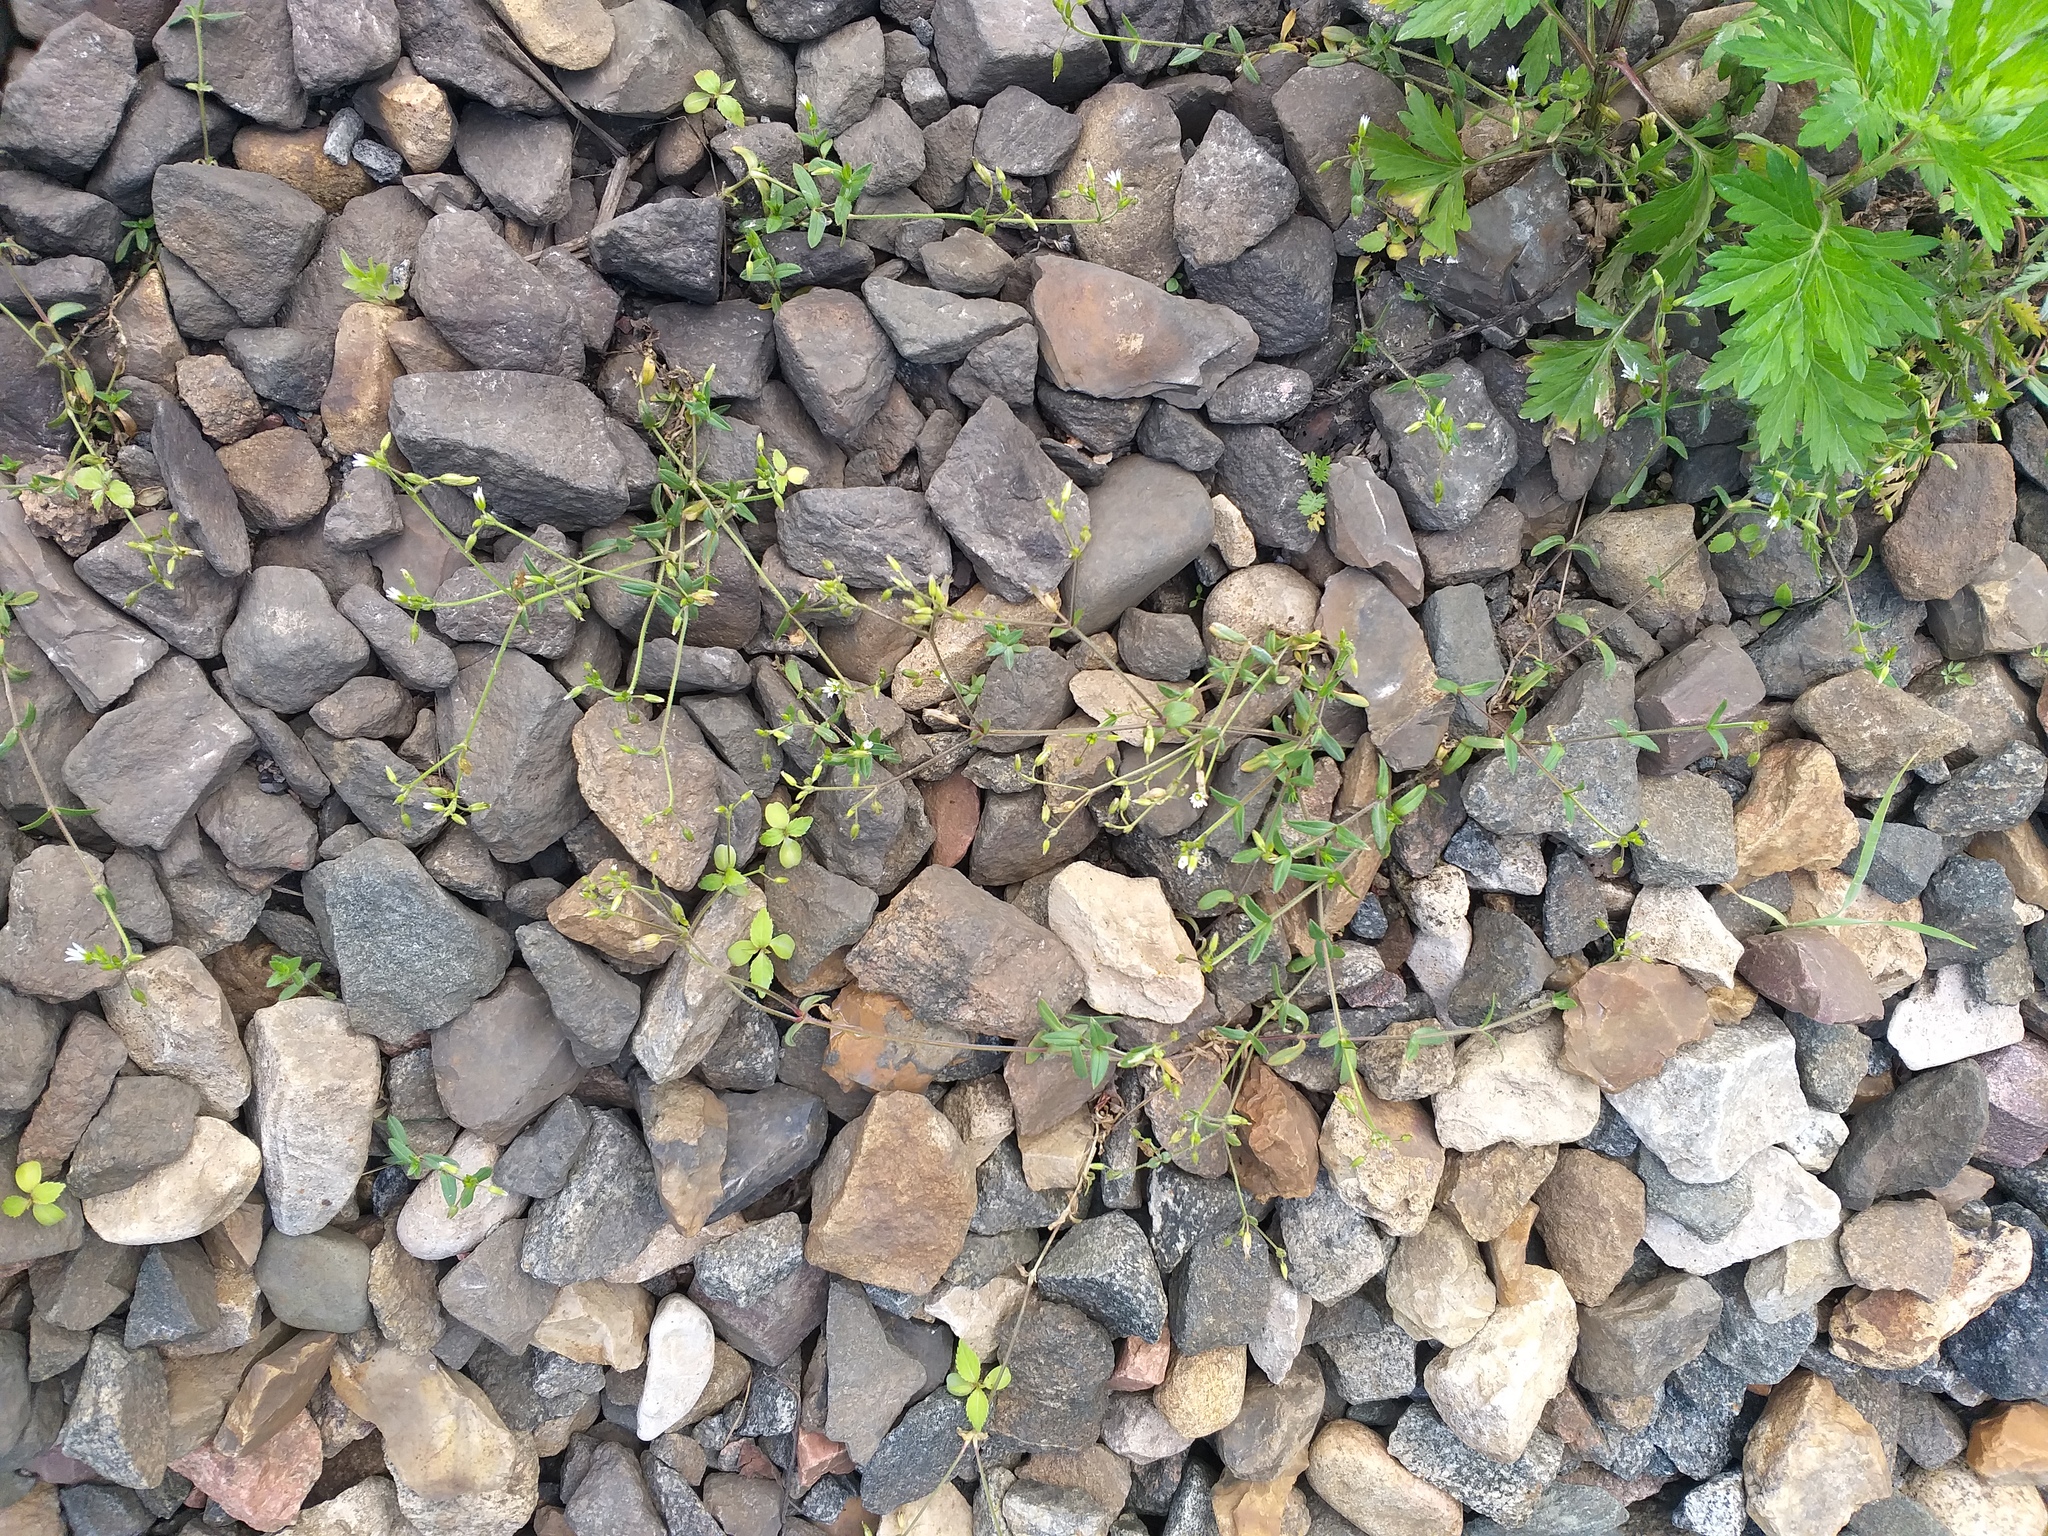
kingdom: Plantae
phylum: Tracheophyta
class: Magnoliopsida
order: Caryophyllales
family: Caryophyllaceae
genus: Cerastium
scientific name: Cerastium holosteoides
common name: Big chickweed
